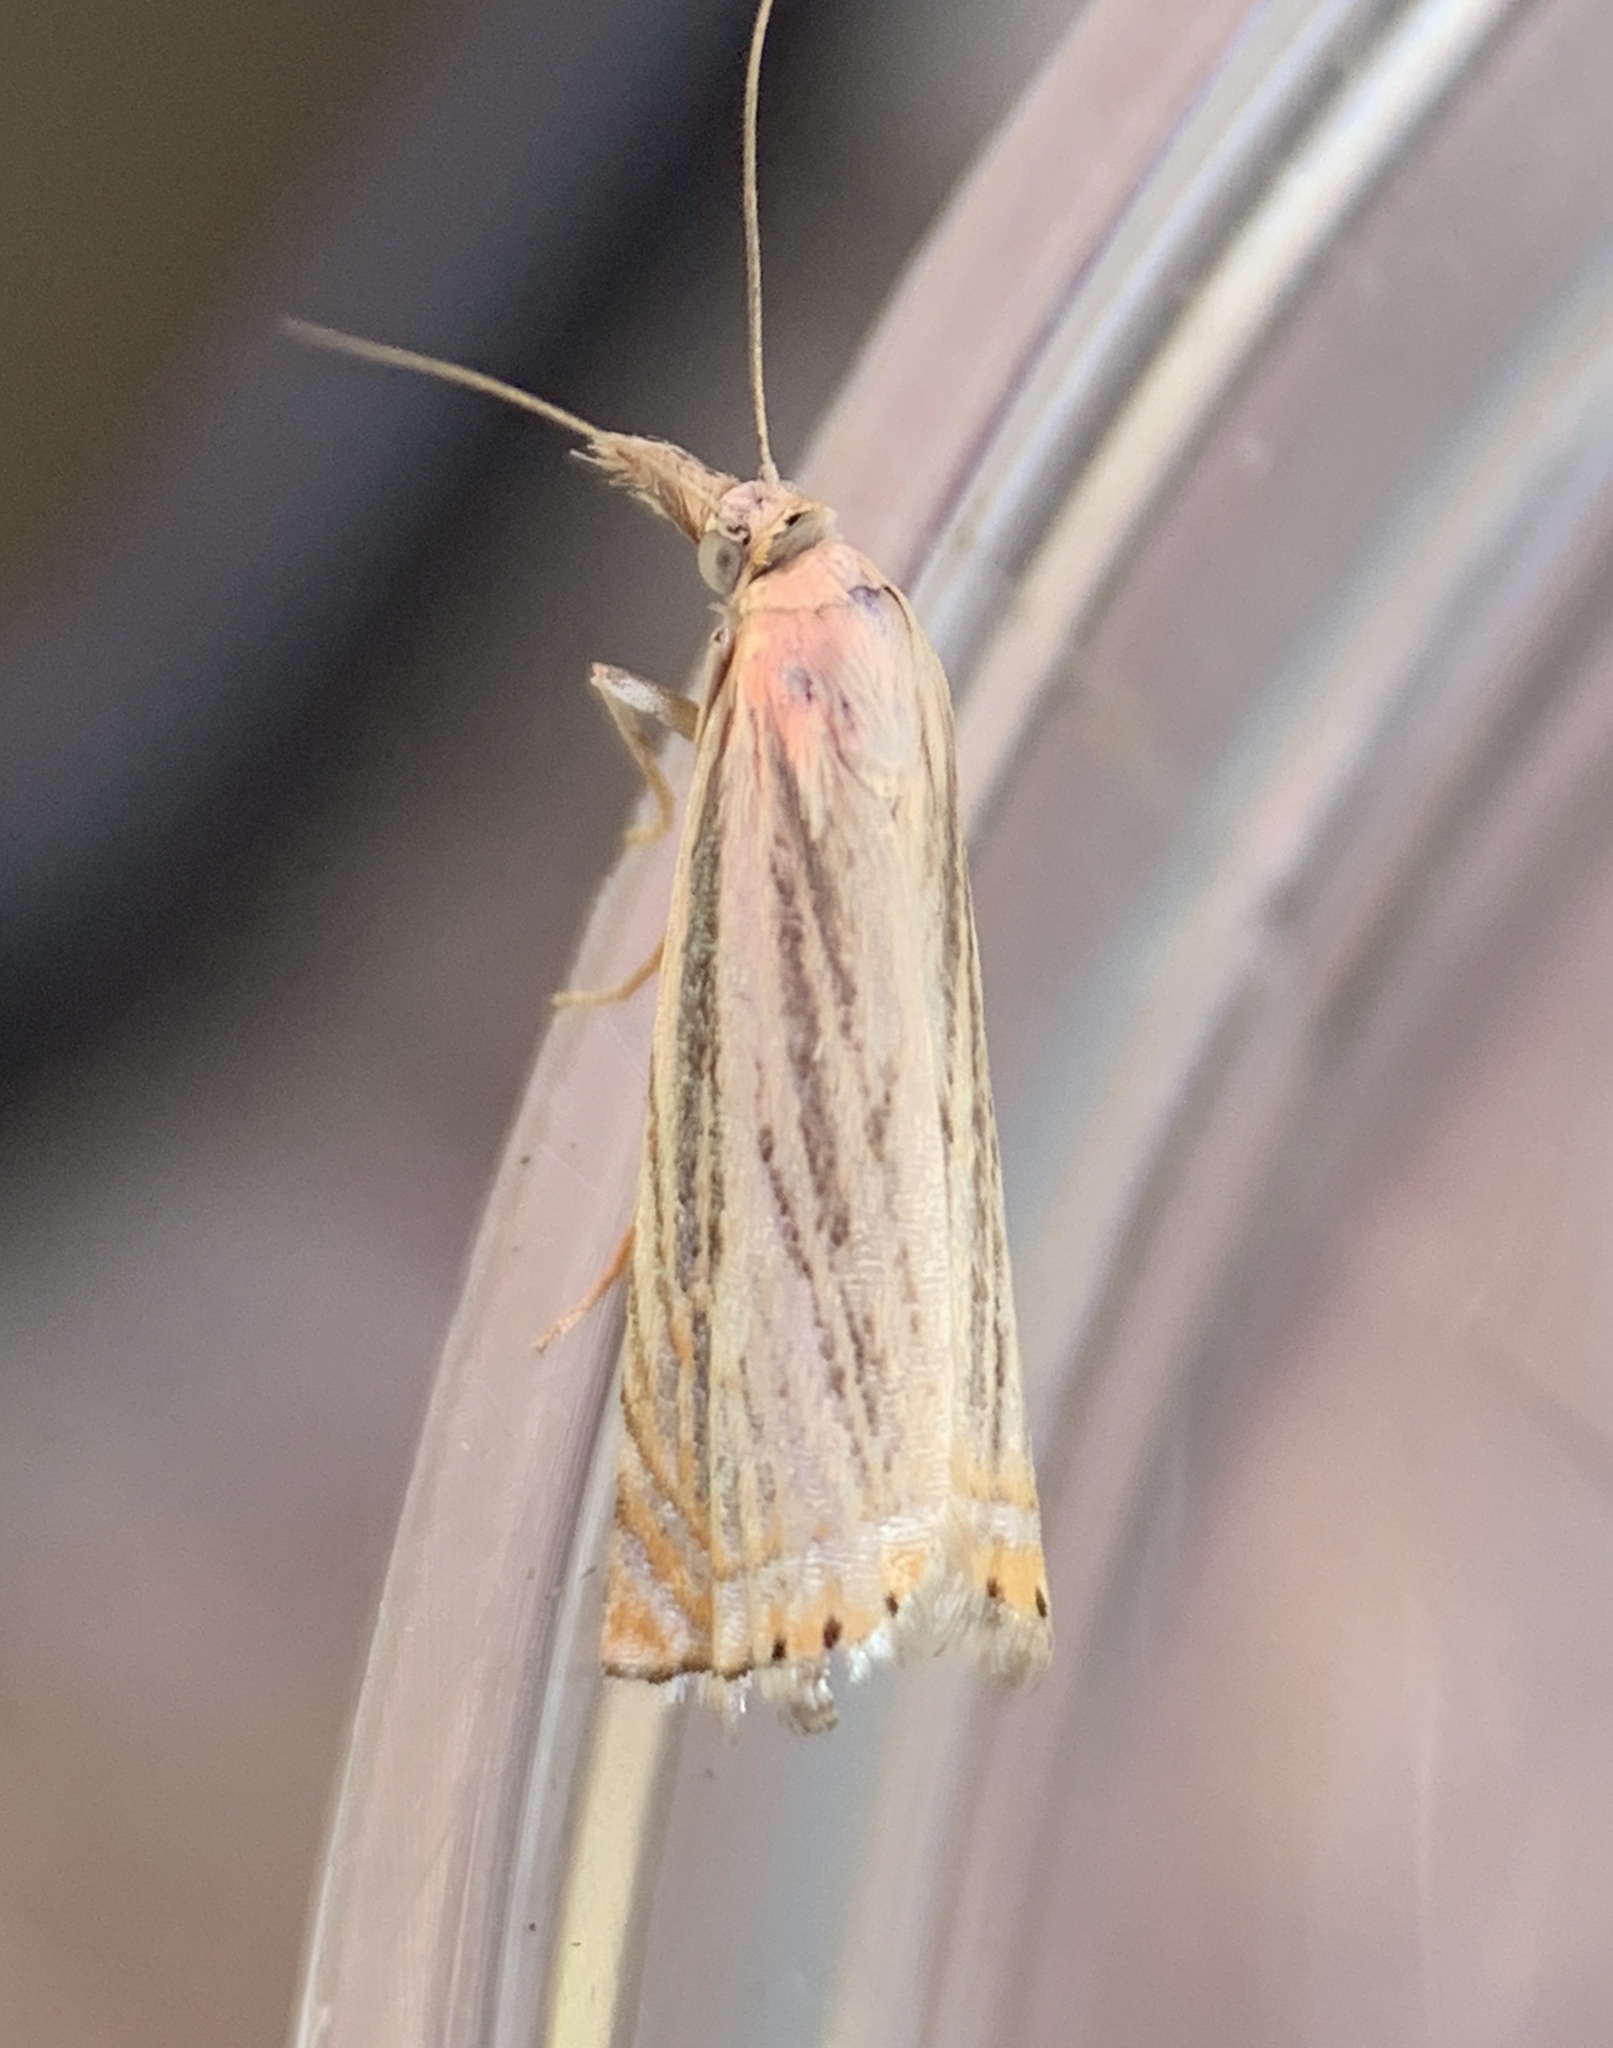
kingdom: Animalia
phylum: Arthropoda
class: Insecta
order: Lepidoptera
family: Crambidae
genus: Chrysoteuchia
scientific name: Chrysoteuchia topiarius
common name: Topiary grass-veneer
